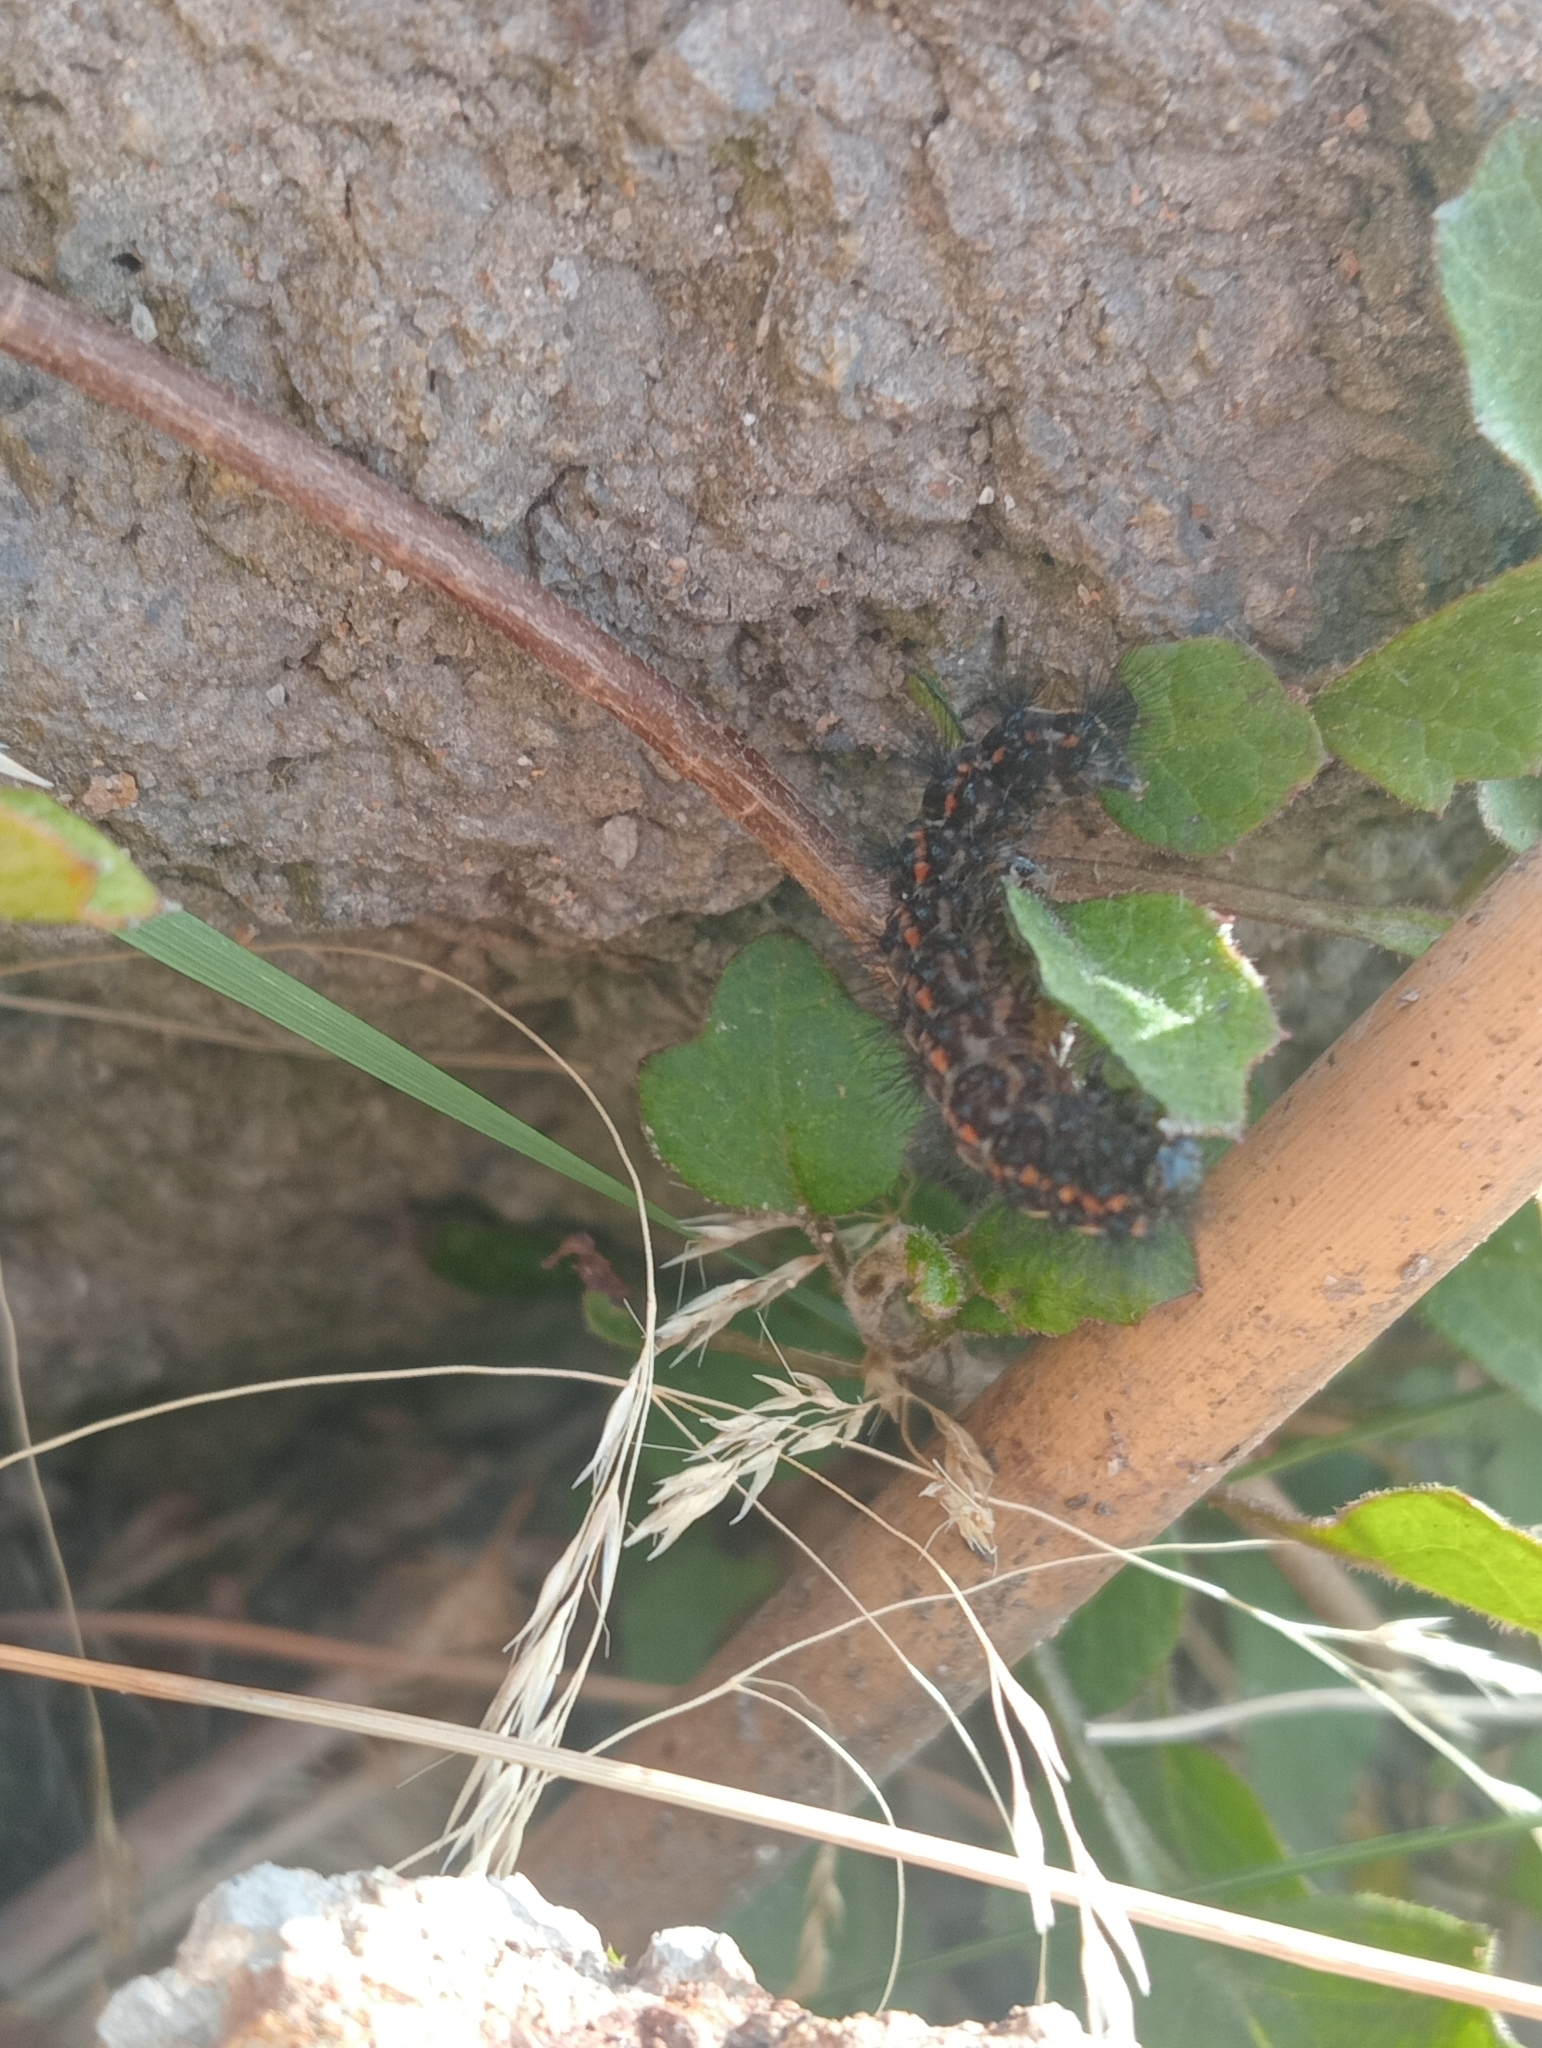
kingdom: Animalia
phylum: Arthropoda
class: Insecta
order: Lepidoptera
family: Erebidae
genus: Nyctemera
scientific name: Nyctemera annulatum
